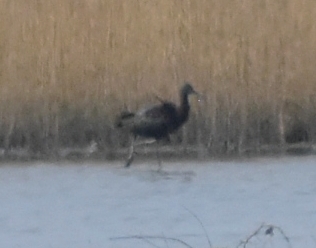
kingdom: Animalia
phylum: Chordata
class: Aves
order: Pelecaniformes
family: Threskiornithidae
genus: Plegadis
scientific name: Plegadis falcinellus
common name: Glossy ibis
